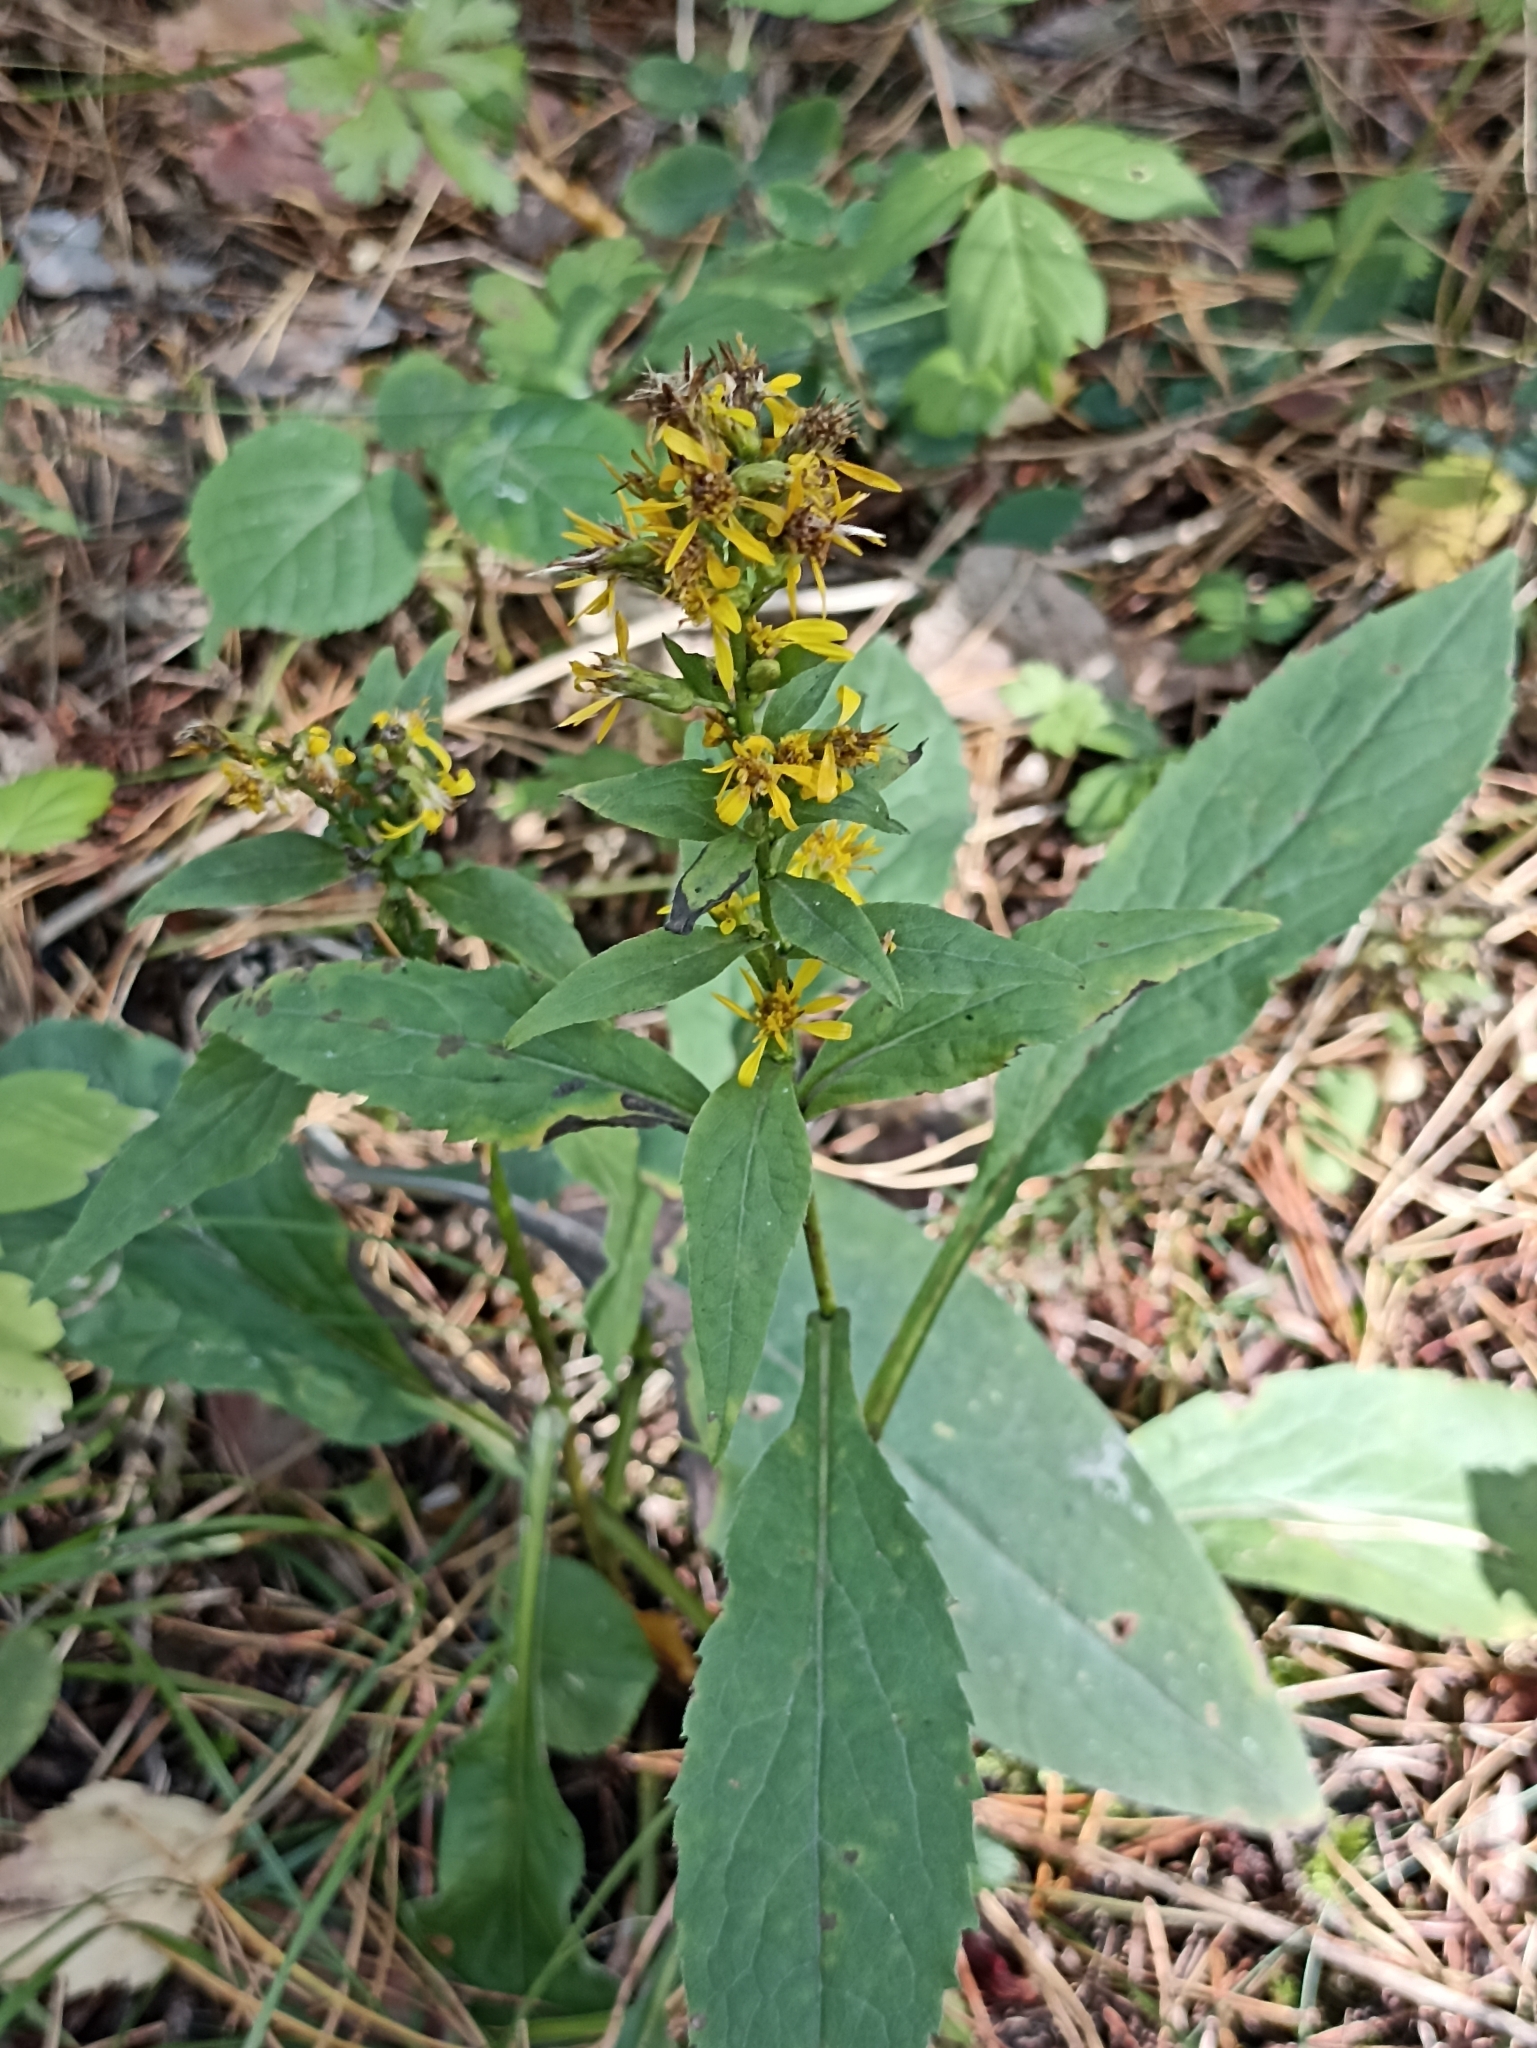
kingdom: Plantae
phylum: Tracheophyta
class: Magnoliopsida
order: Asterales
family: Asteraceae
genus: Solidago
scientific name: Solidago virgaurea
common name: Goldenrod
